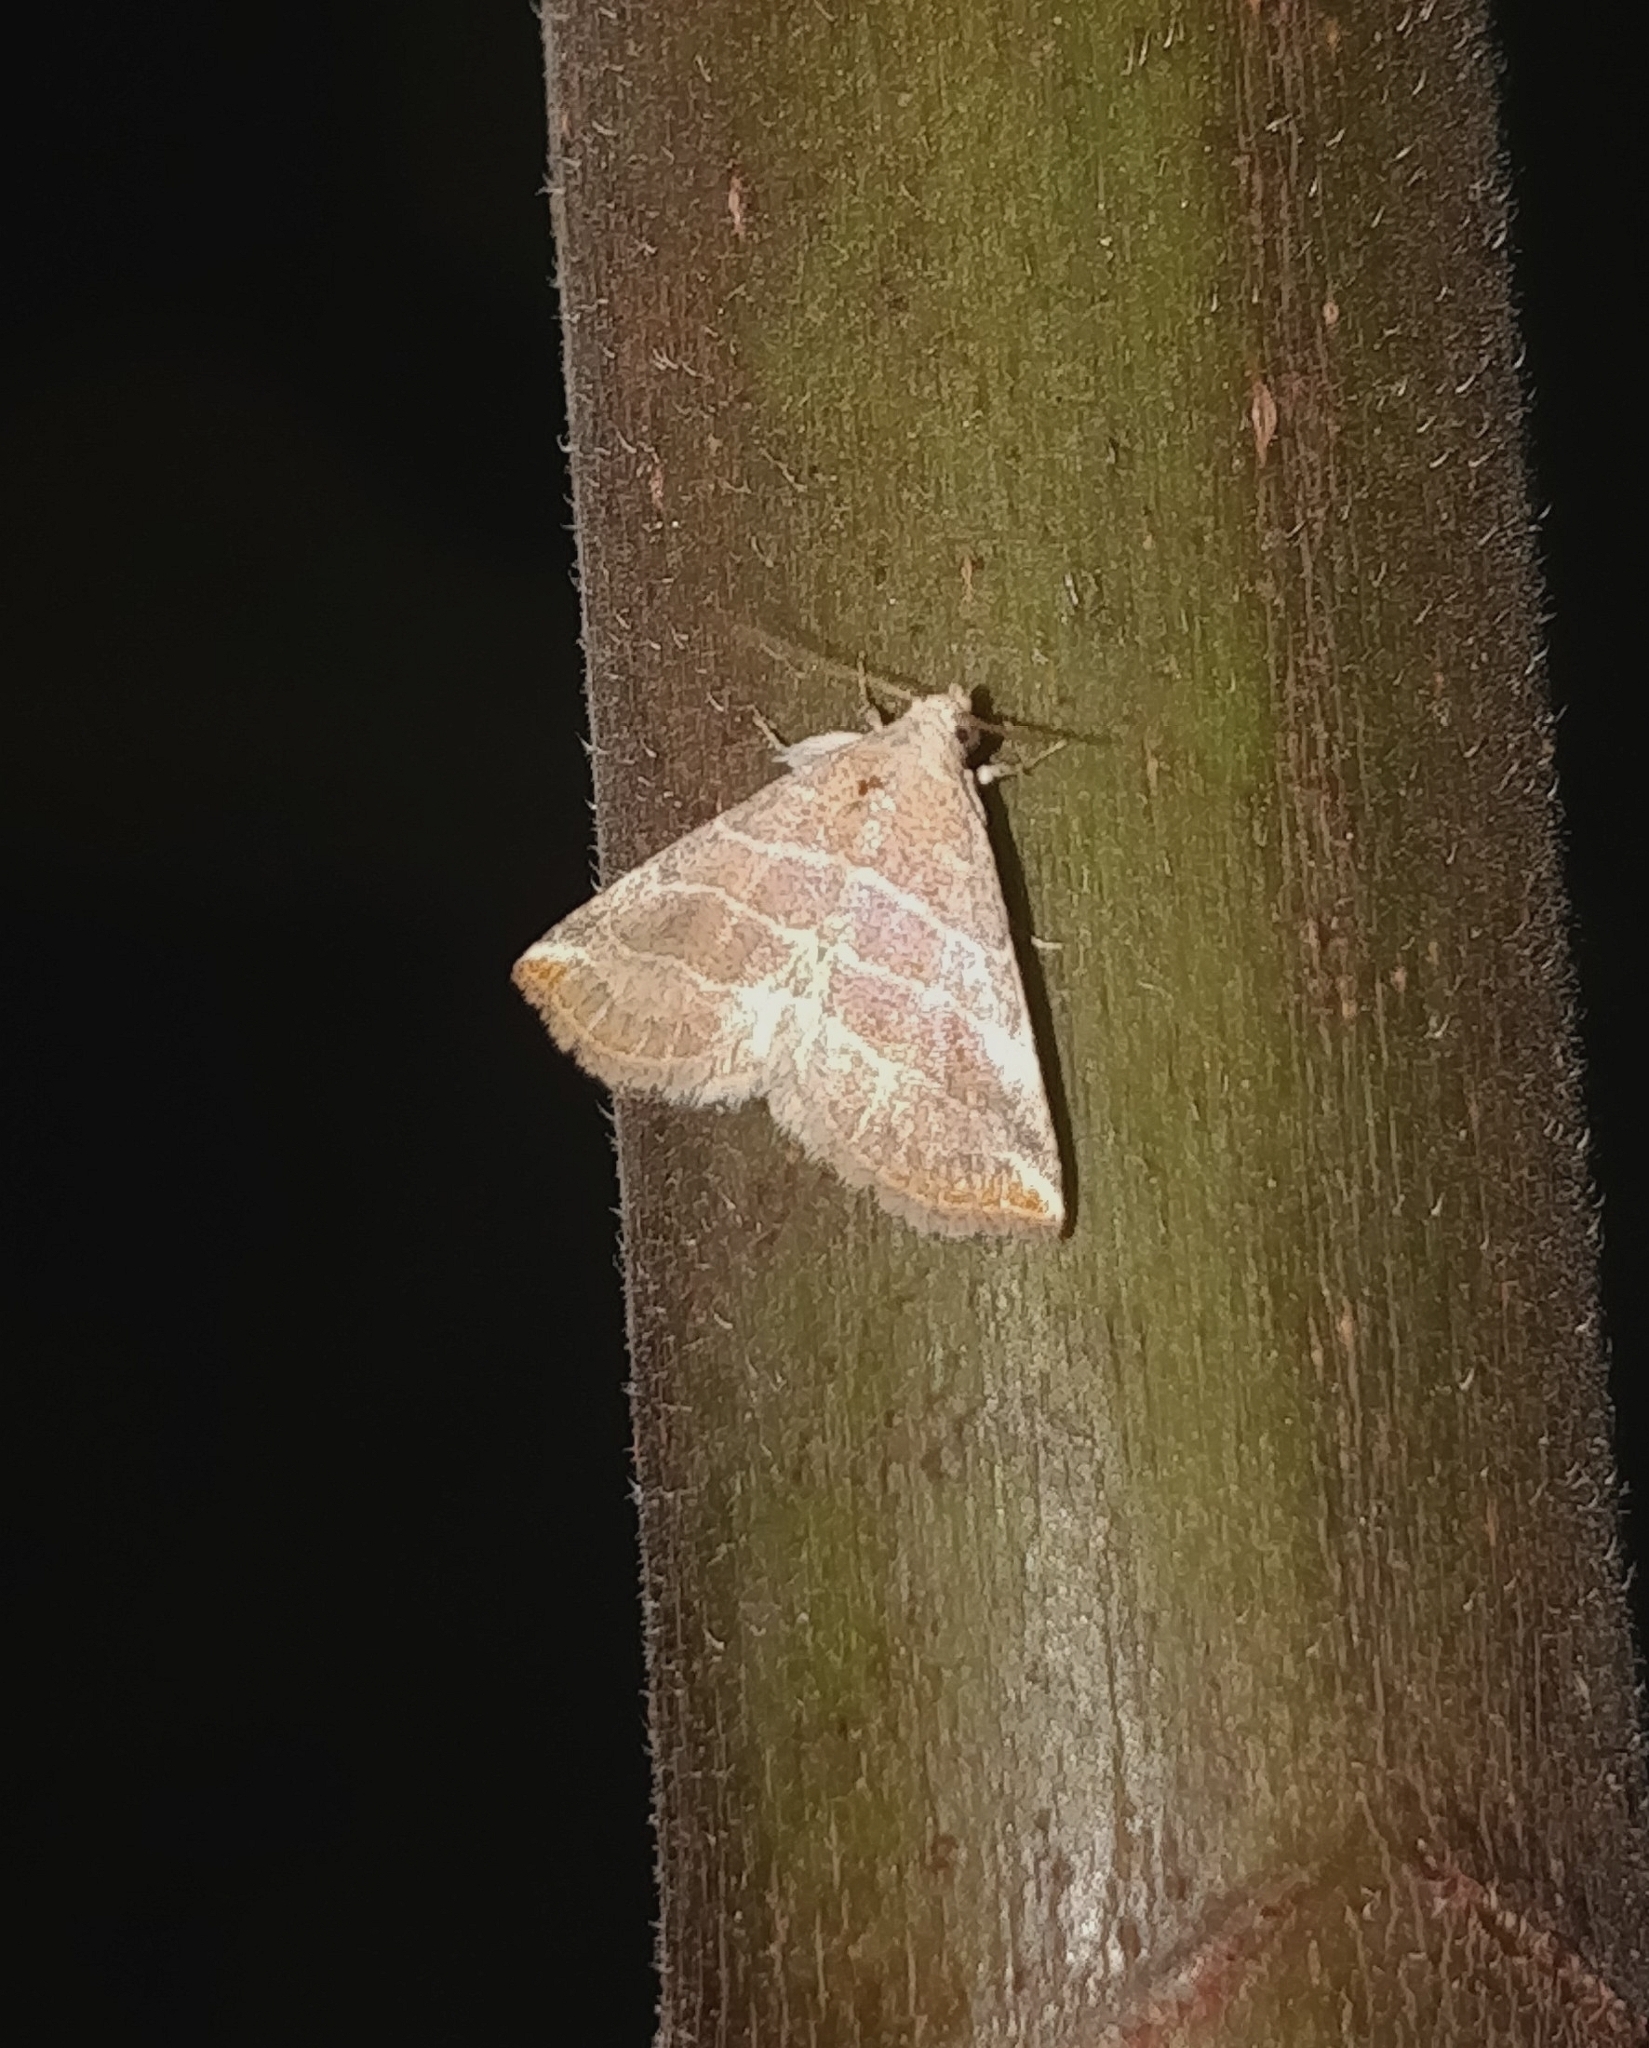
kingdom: Animalia
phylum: Arthropoda
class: Insecta
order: Lepidoptera
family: Noctuidae
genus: Eublemma
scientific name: Eublemma baccatrix
